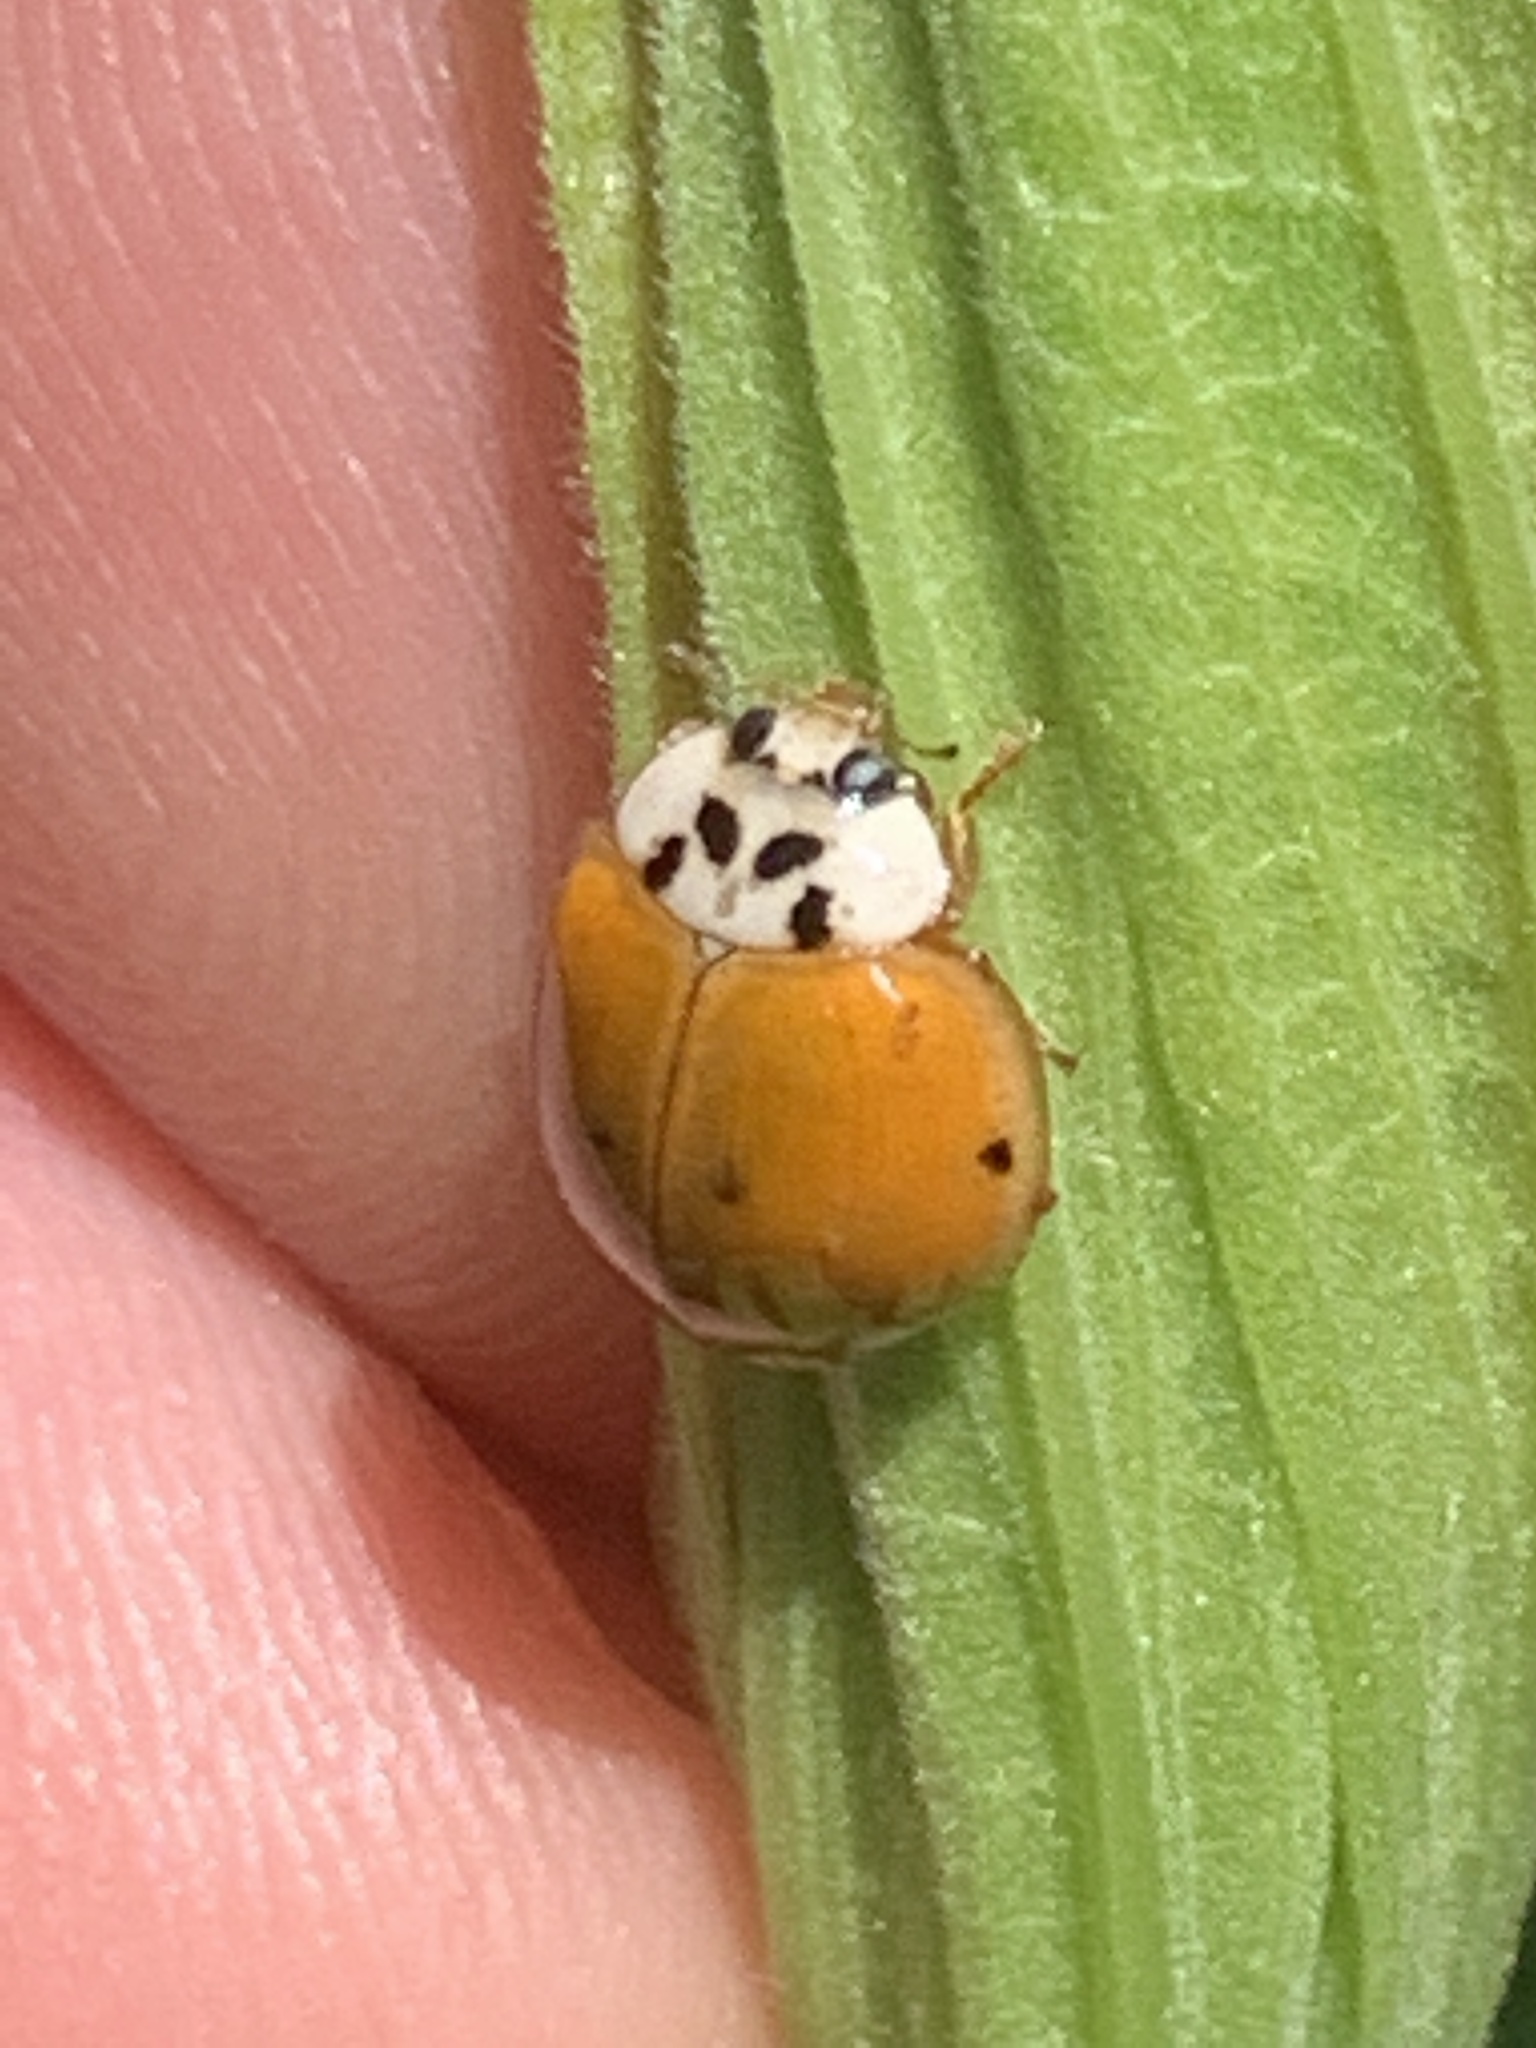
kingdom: Animalia
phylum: Arthropoda
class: Insecta
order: Coleoptera
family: Coccinellidae
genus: Harmonia
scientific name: Harmonia axyridis
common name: Harlequin ladybird
